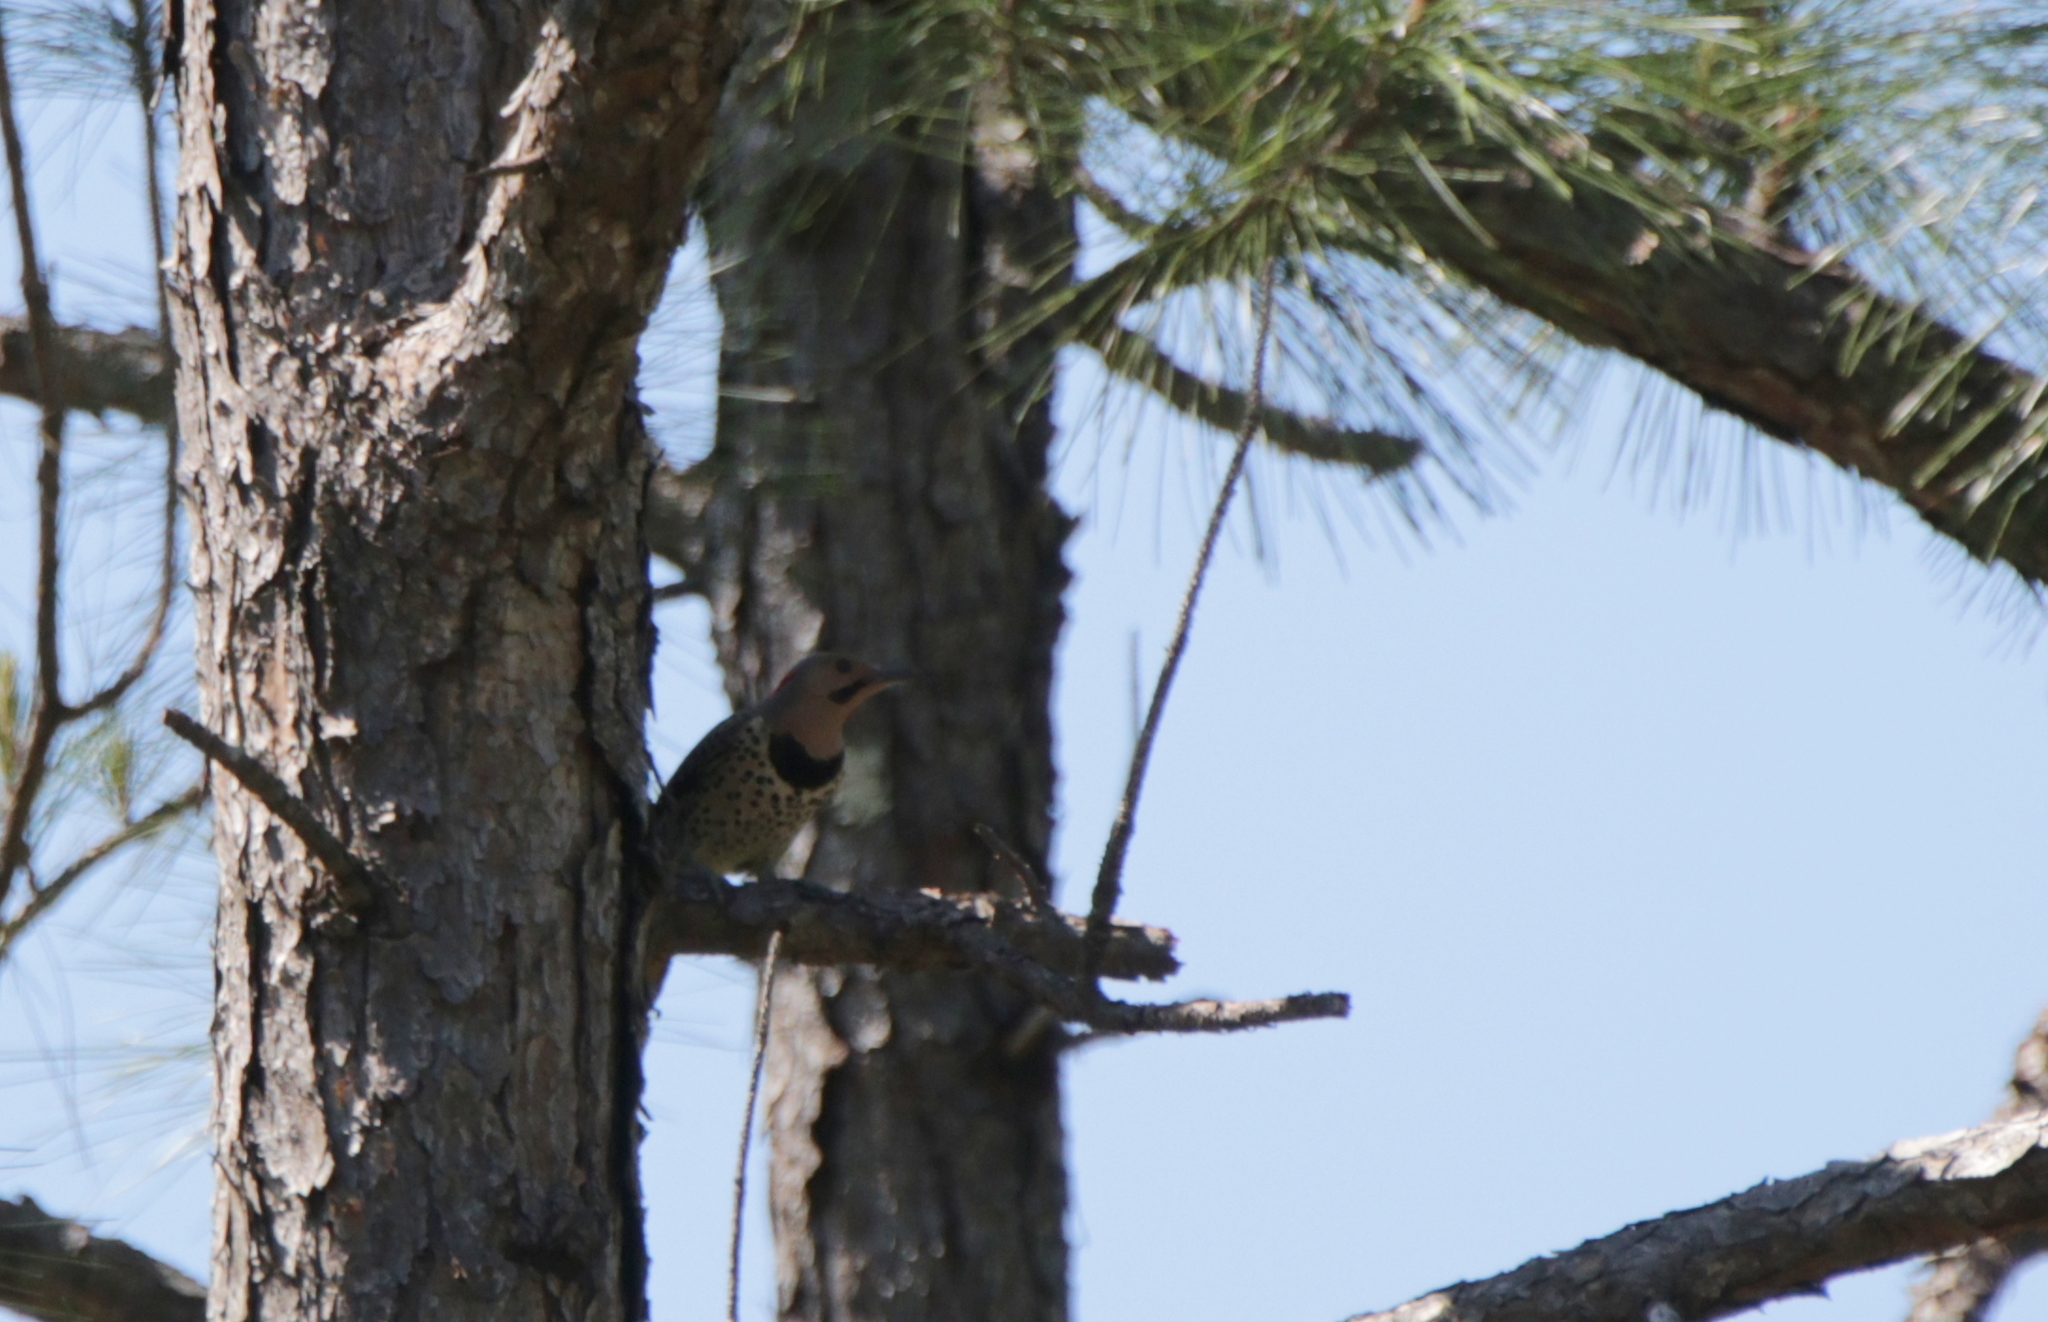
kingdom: Animalia
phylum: Chordata
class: Aves
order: Piciformes
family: Picidae
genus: Colaptes
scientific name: Colaptes auratus
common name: Northern flicker
